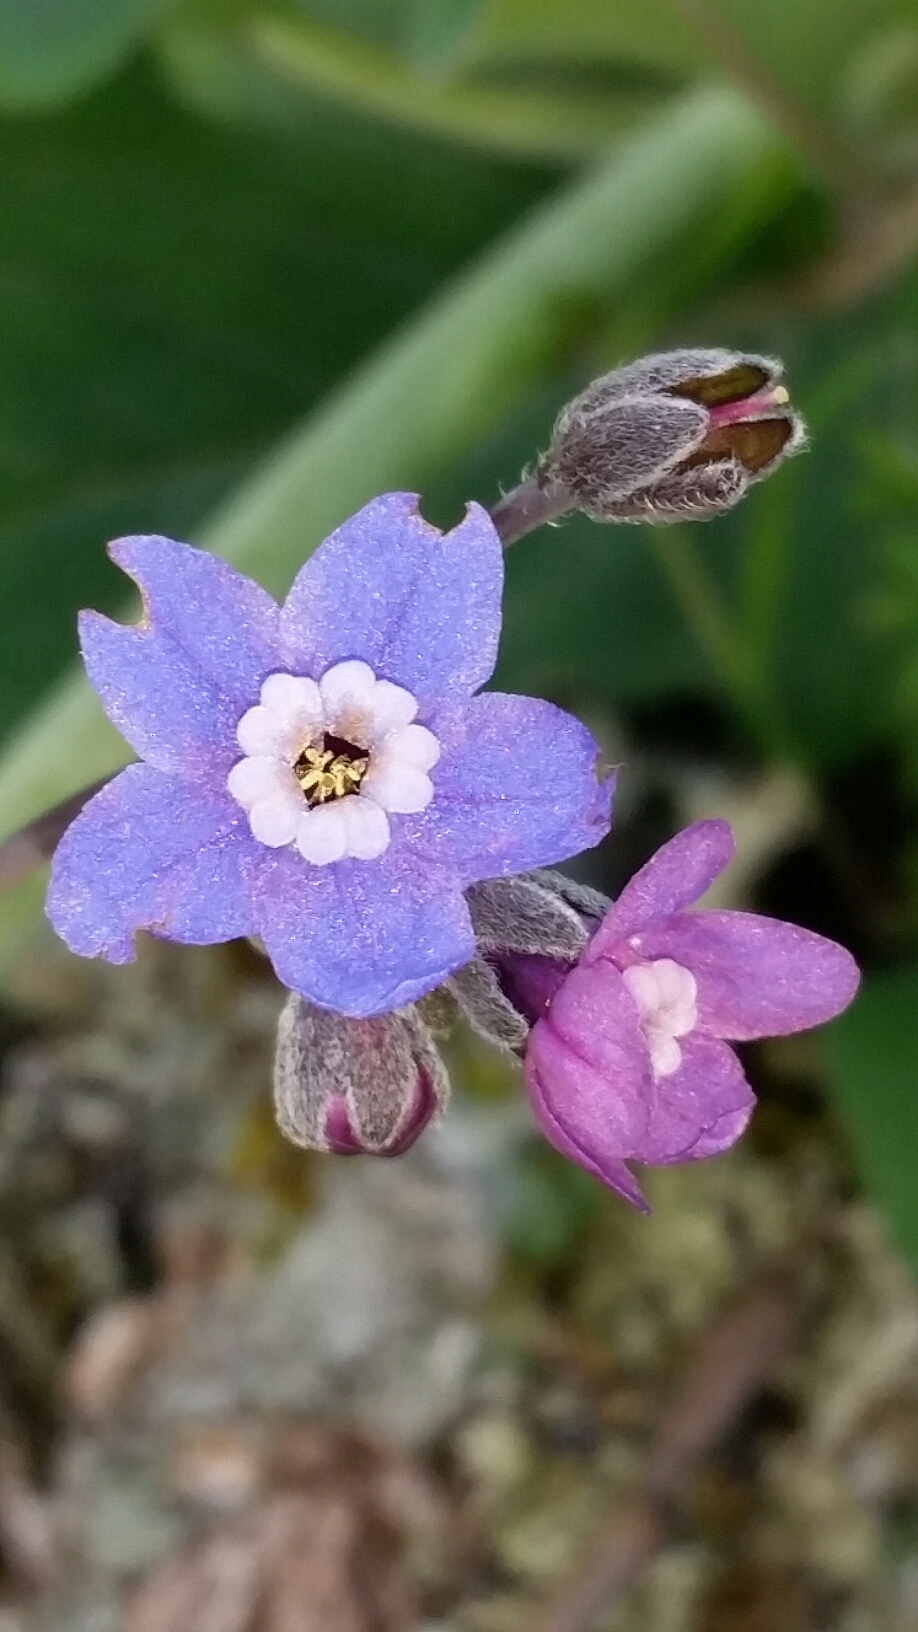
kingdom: Plantae
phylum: Tracheophyta
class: Magnoliopsida
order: Boraginales
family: Boraginaceae
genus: Adelinia
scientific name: Adelinia grande
